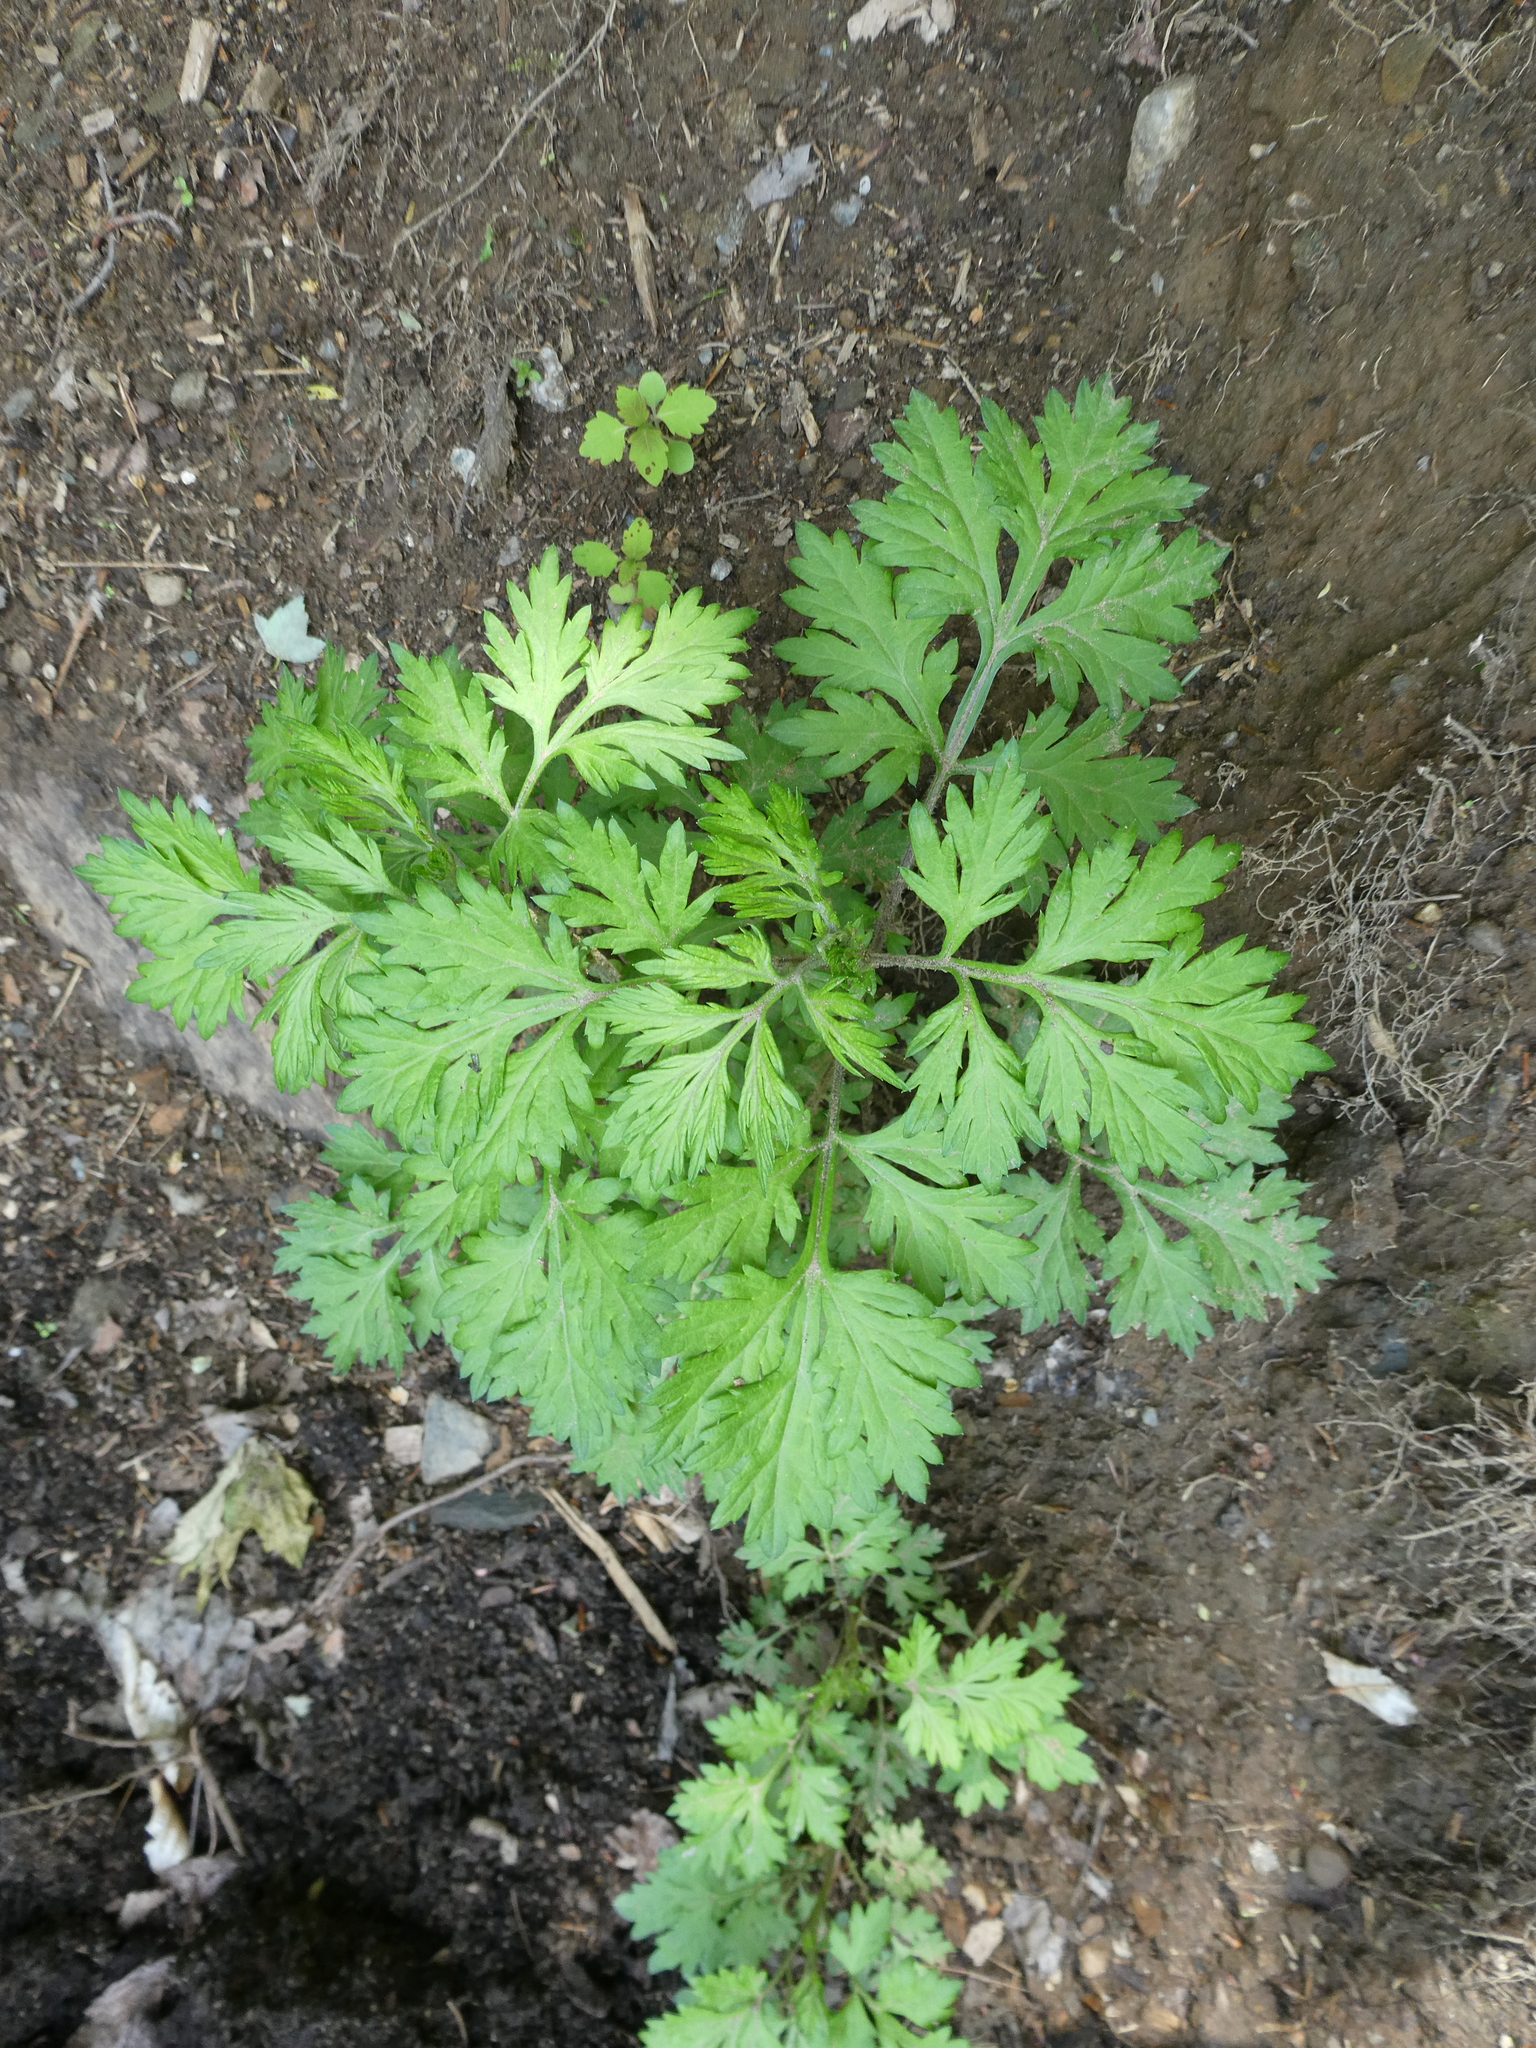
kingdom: Plantae
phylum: Tracheophyta
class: Magnoliopsida
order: Asterales
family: Asteraceae
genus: Artemisia
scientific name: Artemisia vulgaris
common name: Mugwort
